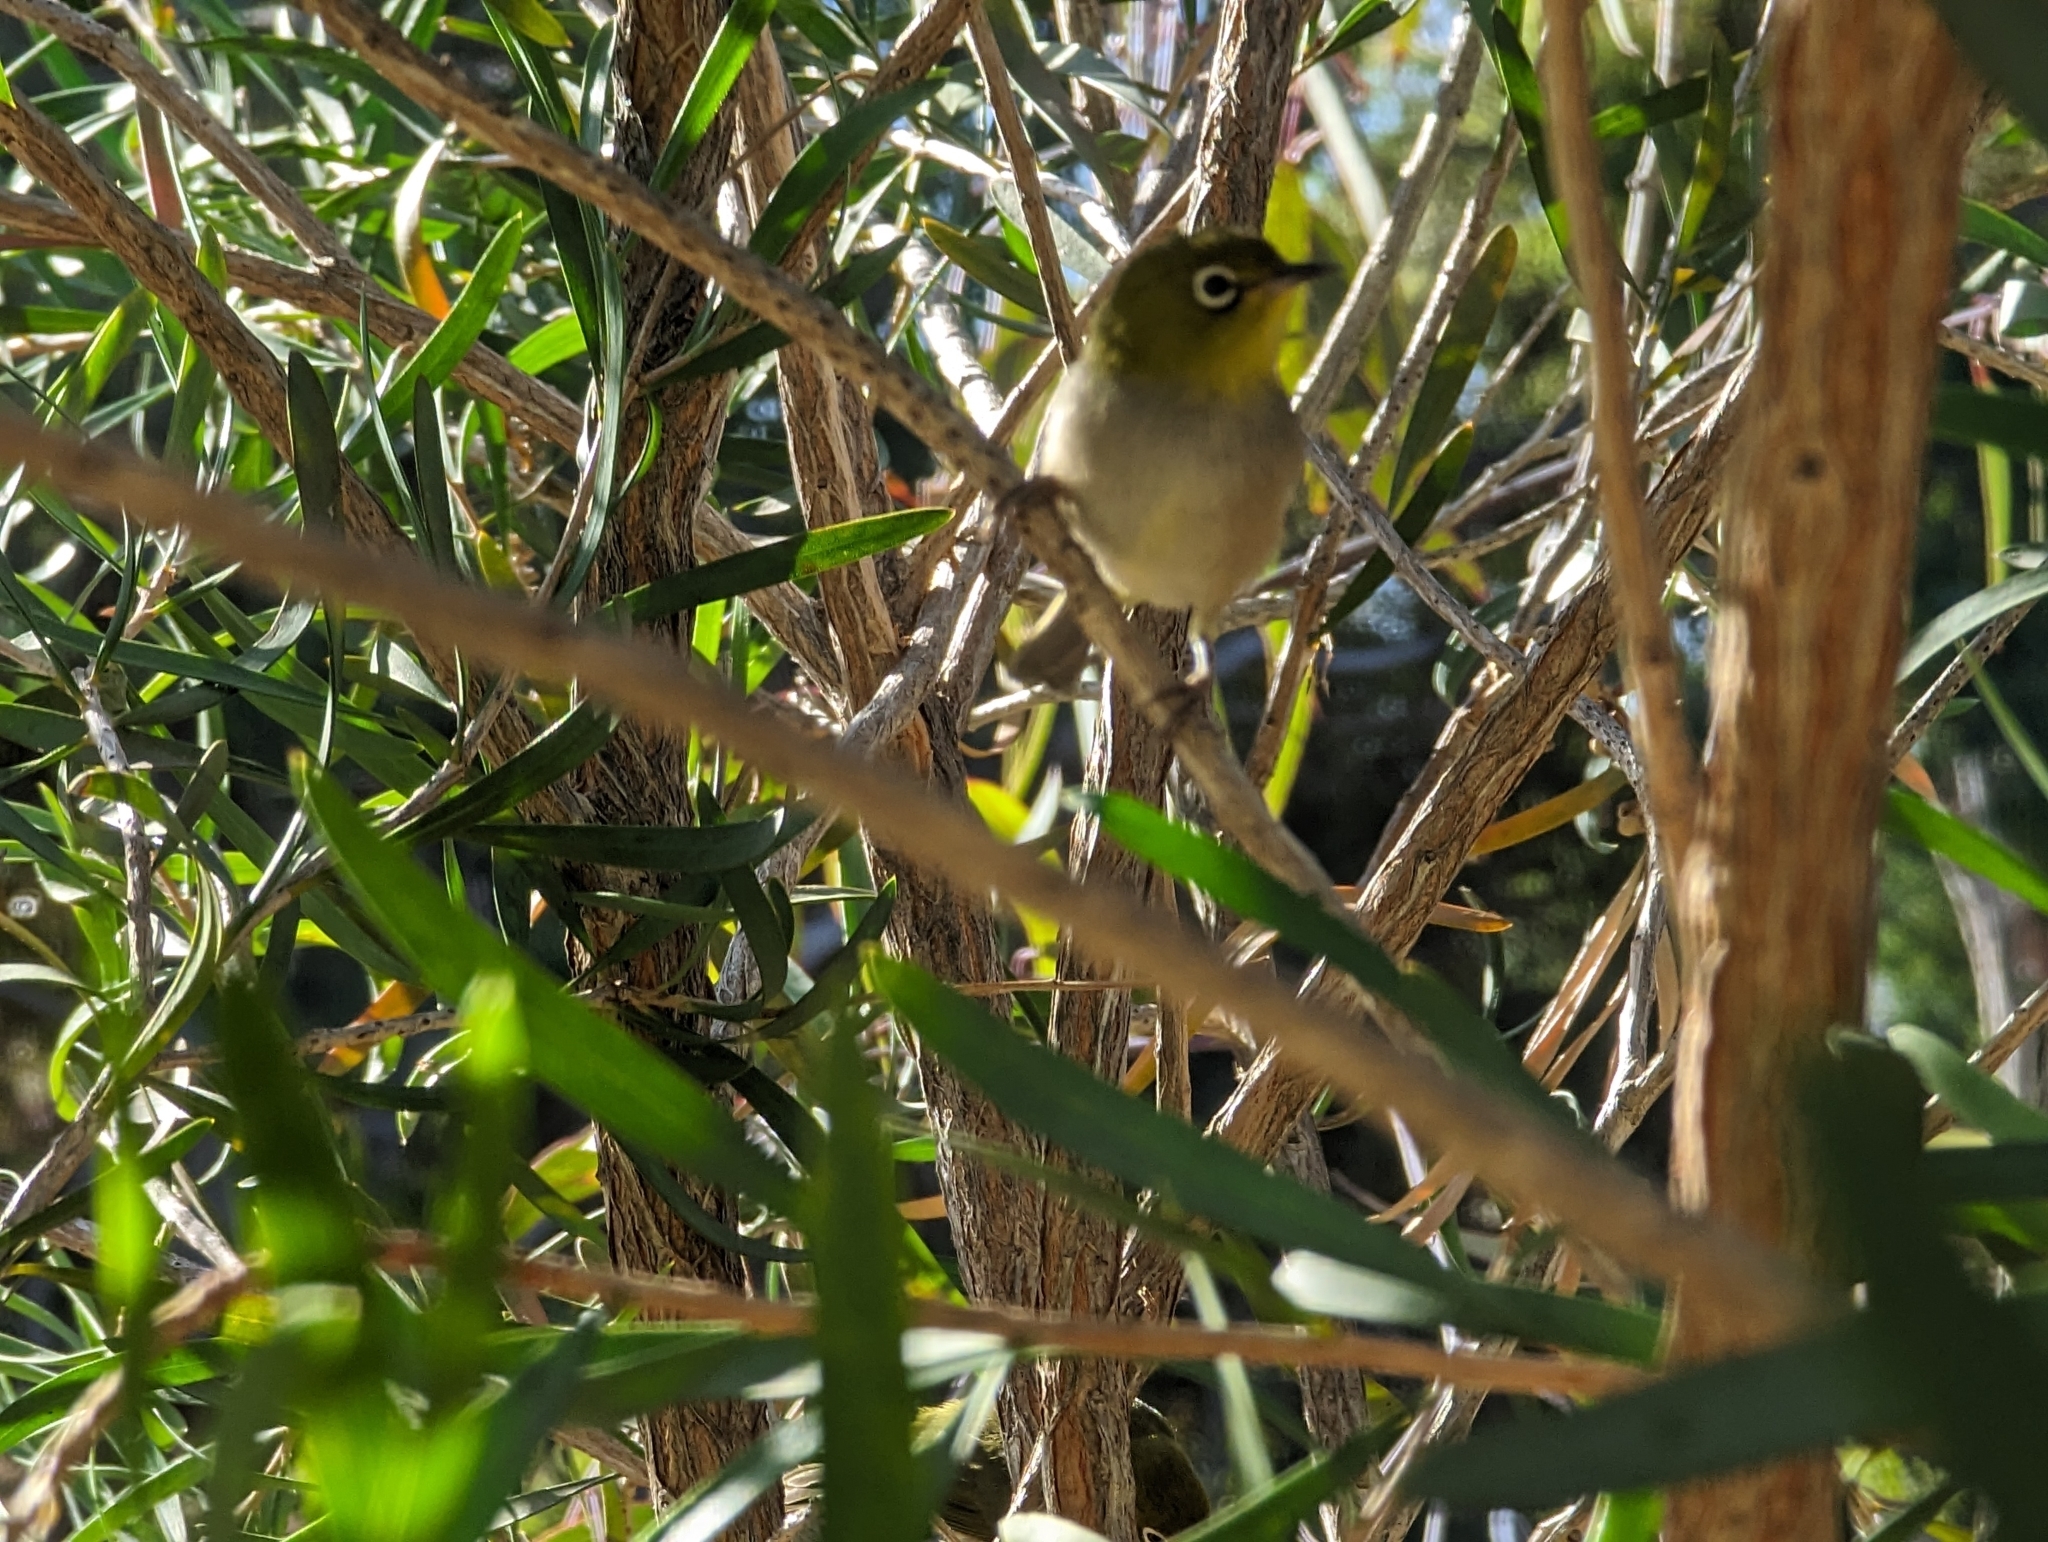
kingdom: Animalia
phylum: Chordata
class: Aves
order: Passeriformes
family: Zosteropidae
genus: Zosterops
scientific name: Zosterops lateralis
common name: Silvereye
